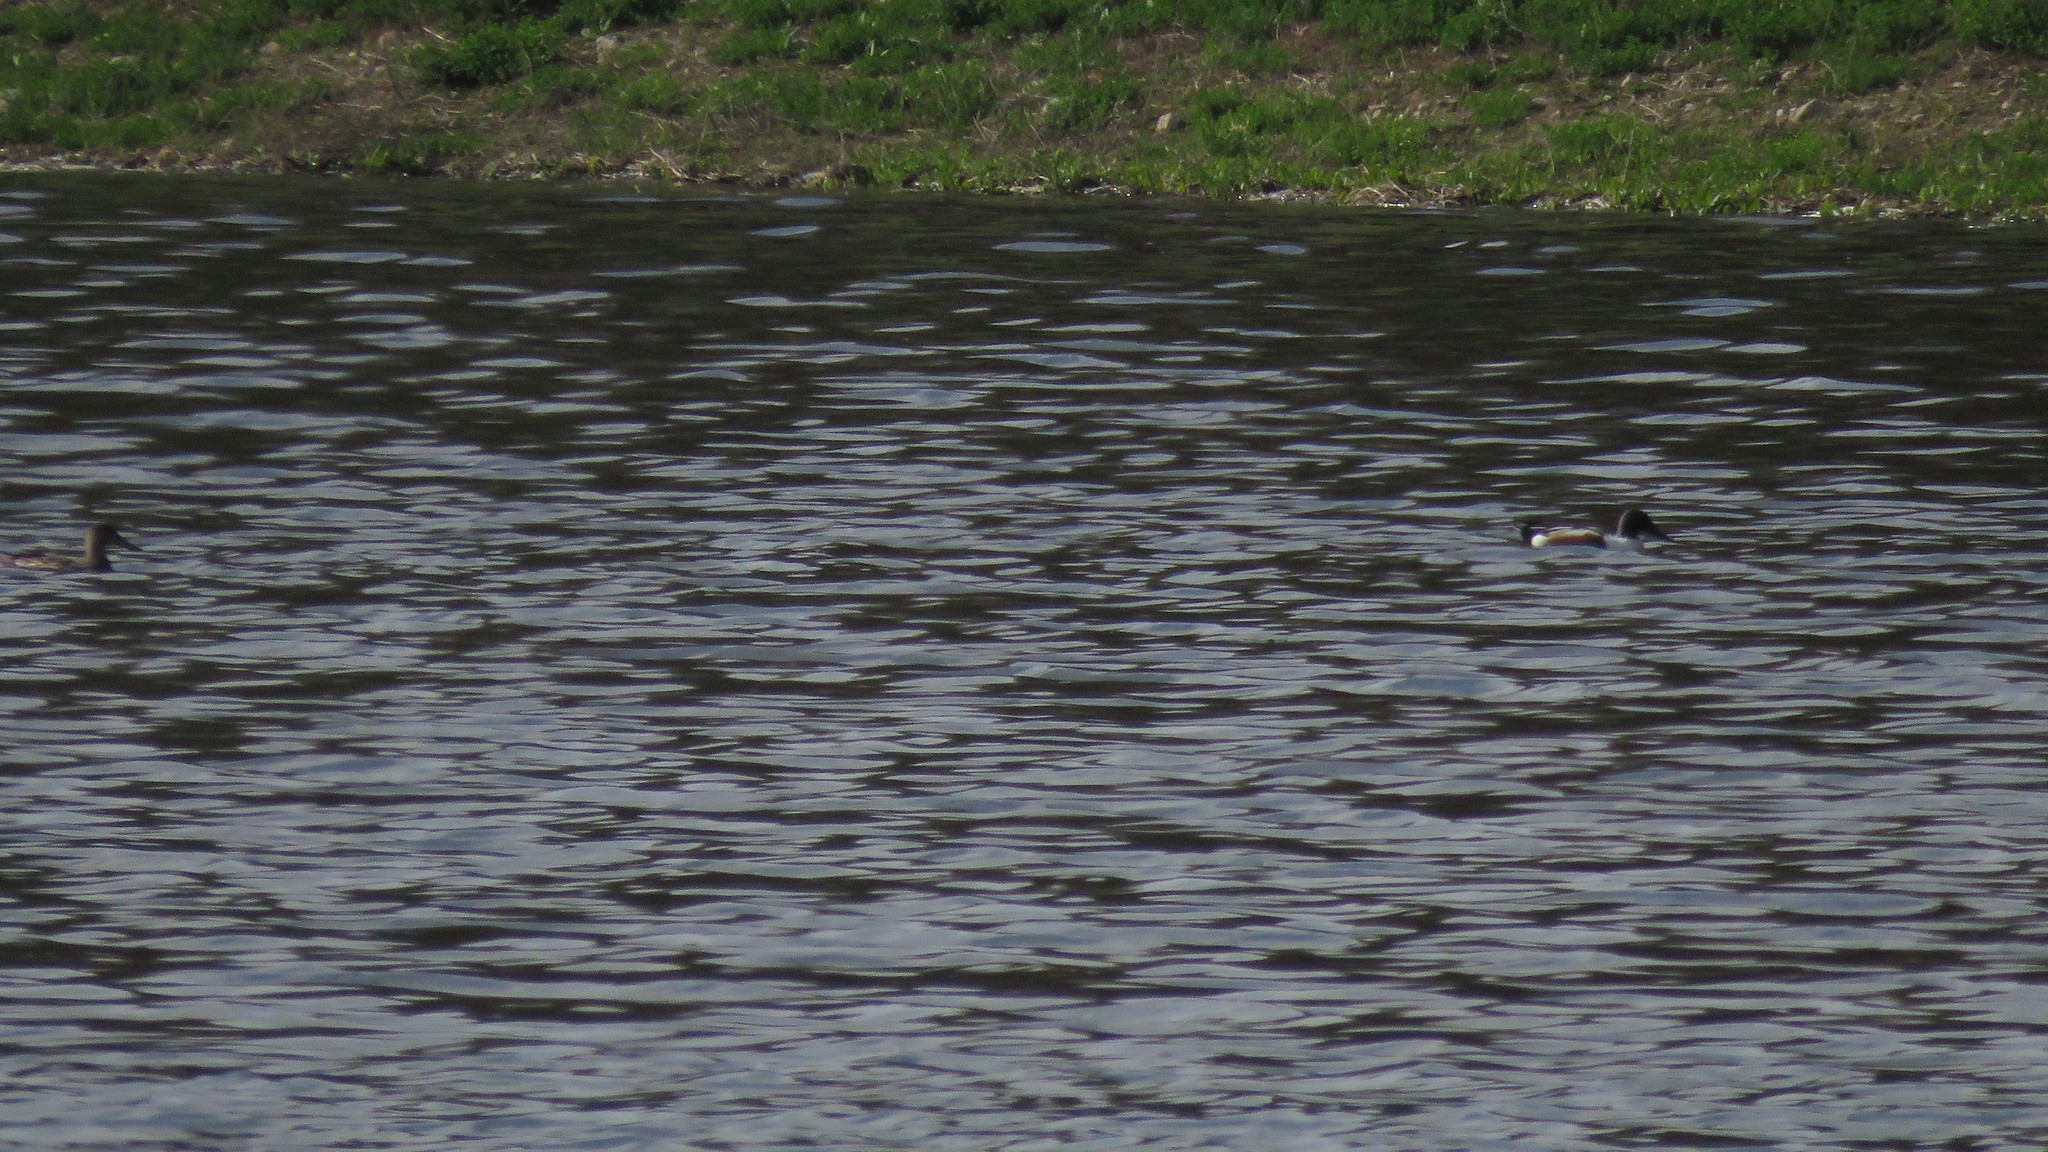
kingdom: Animalia
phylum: Chordata
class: Aves
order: Anseriformes
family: Anatidae
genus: Spatula
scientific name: Spatula clypeata
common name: Northern shoveler
